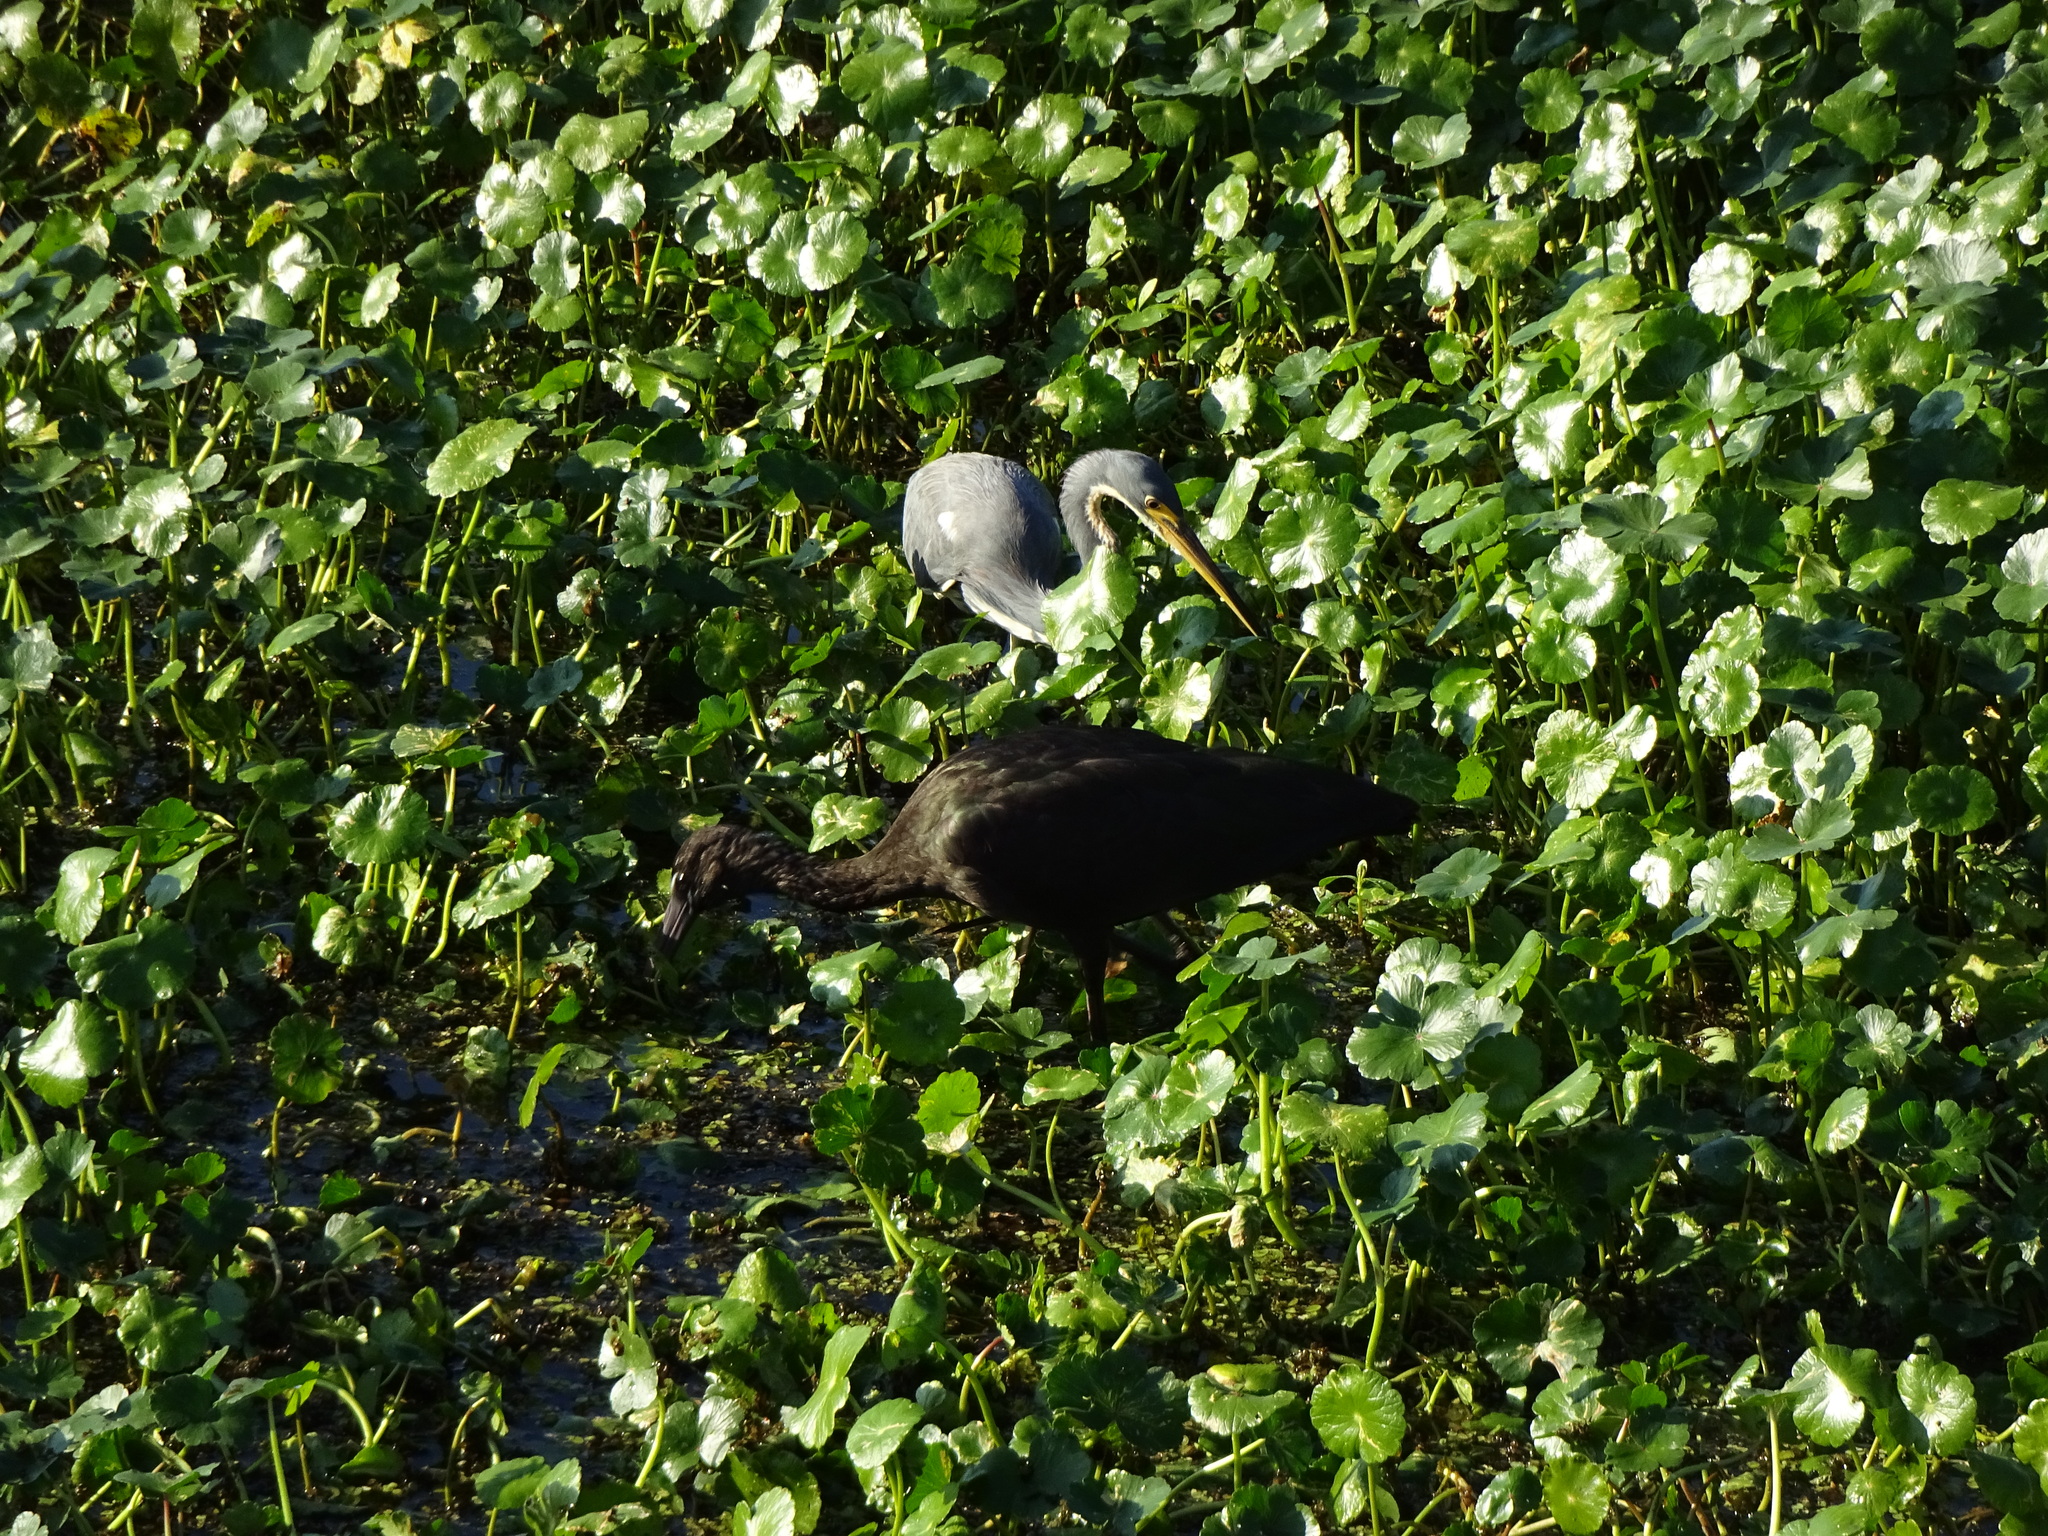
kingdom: Animalia
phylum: Chordata
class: Aves
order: Pelecaniformes
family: Ardeidae
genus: Egretta
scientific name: Egretta tricolor
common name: Tricolored heron
